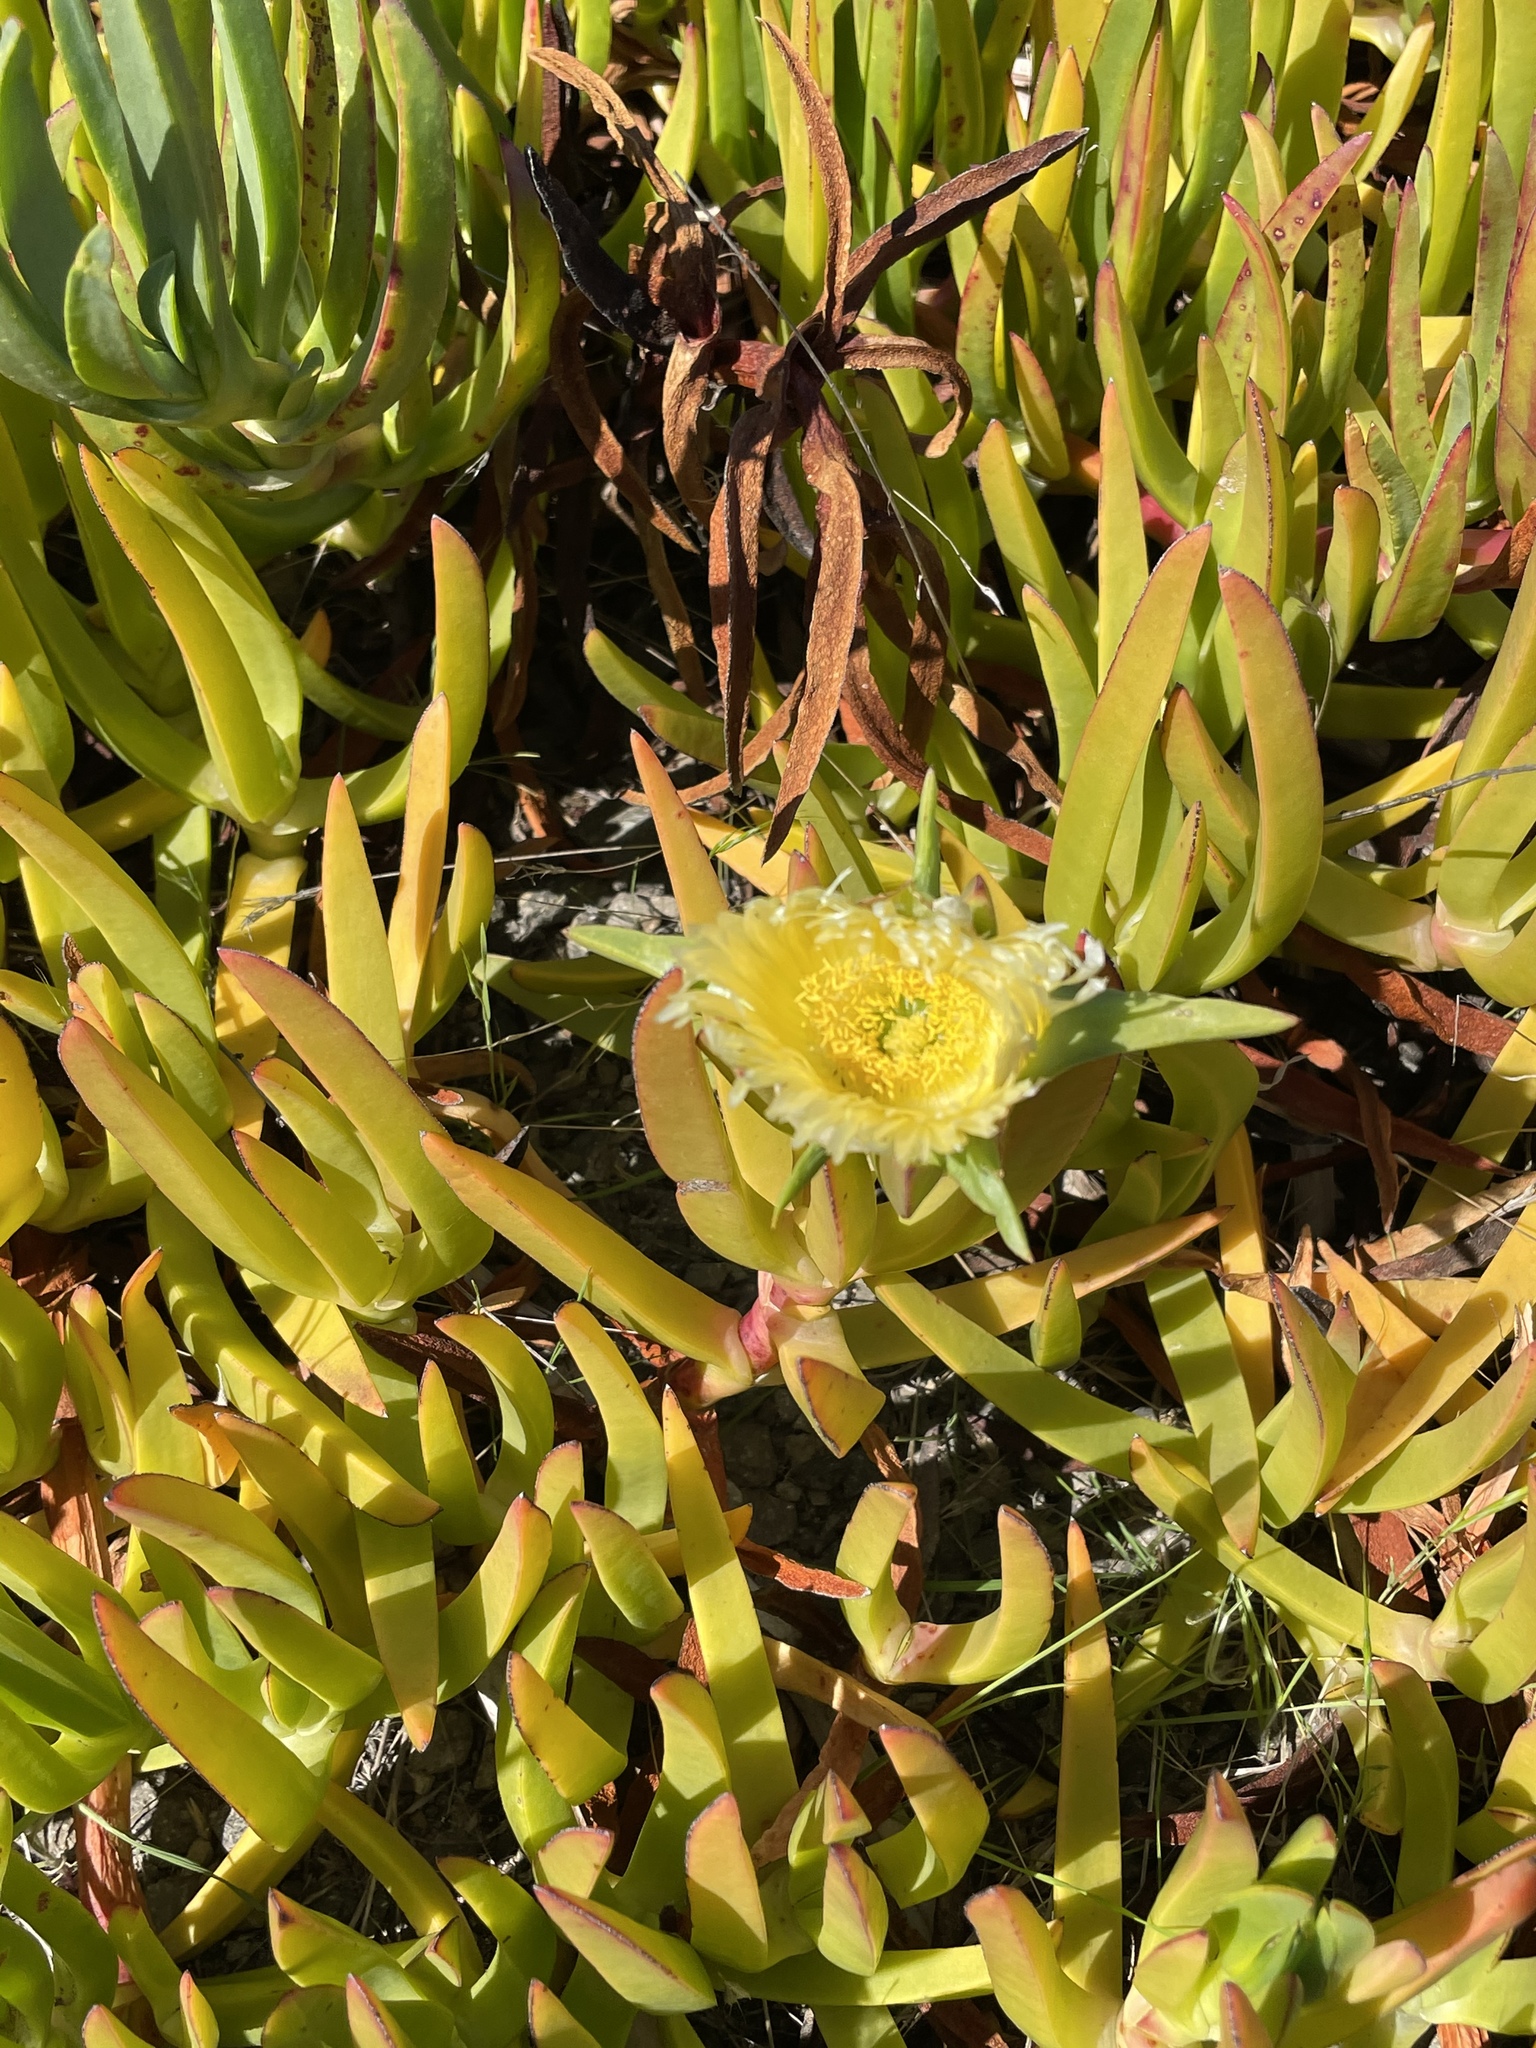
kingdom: Plantae
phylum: Tracheophyta
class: Magnoliopsida
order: Caryophyllales
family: Aizoaceae
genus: Carpobrotus
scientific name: Carpobrotus edulis
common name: Hottentot-fig
